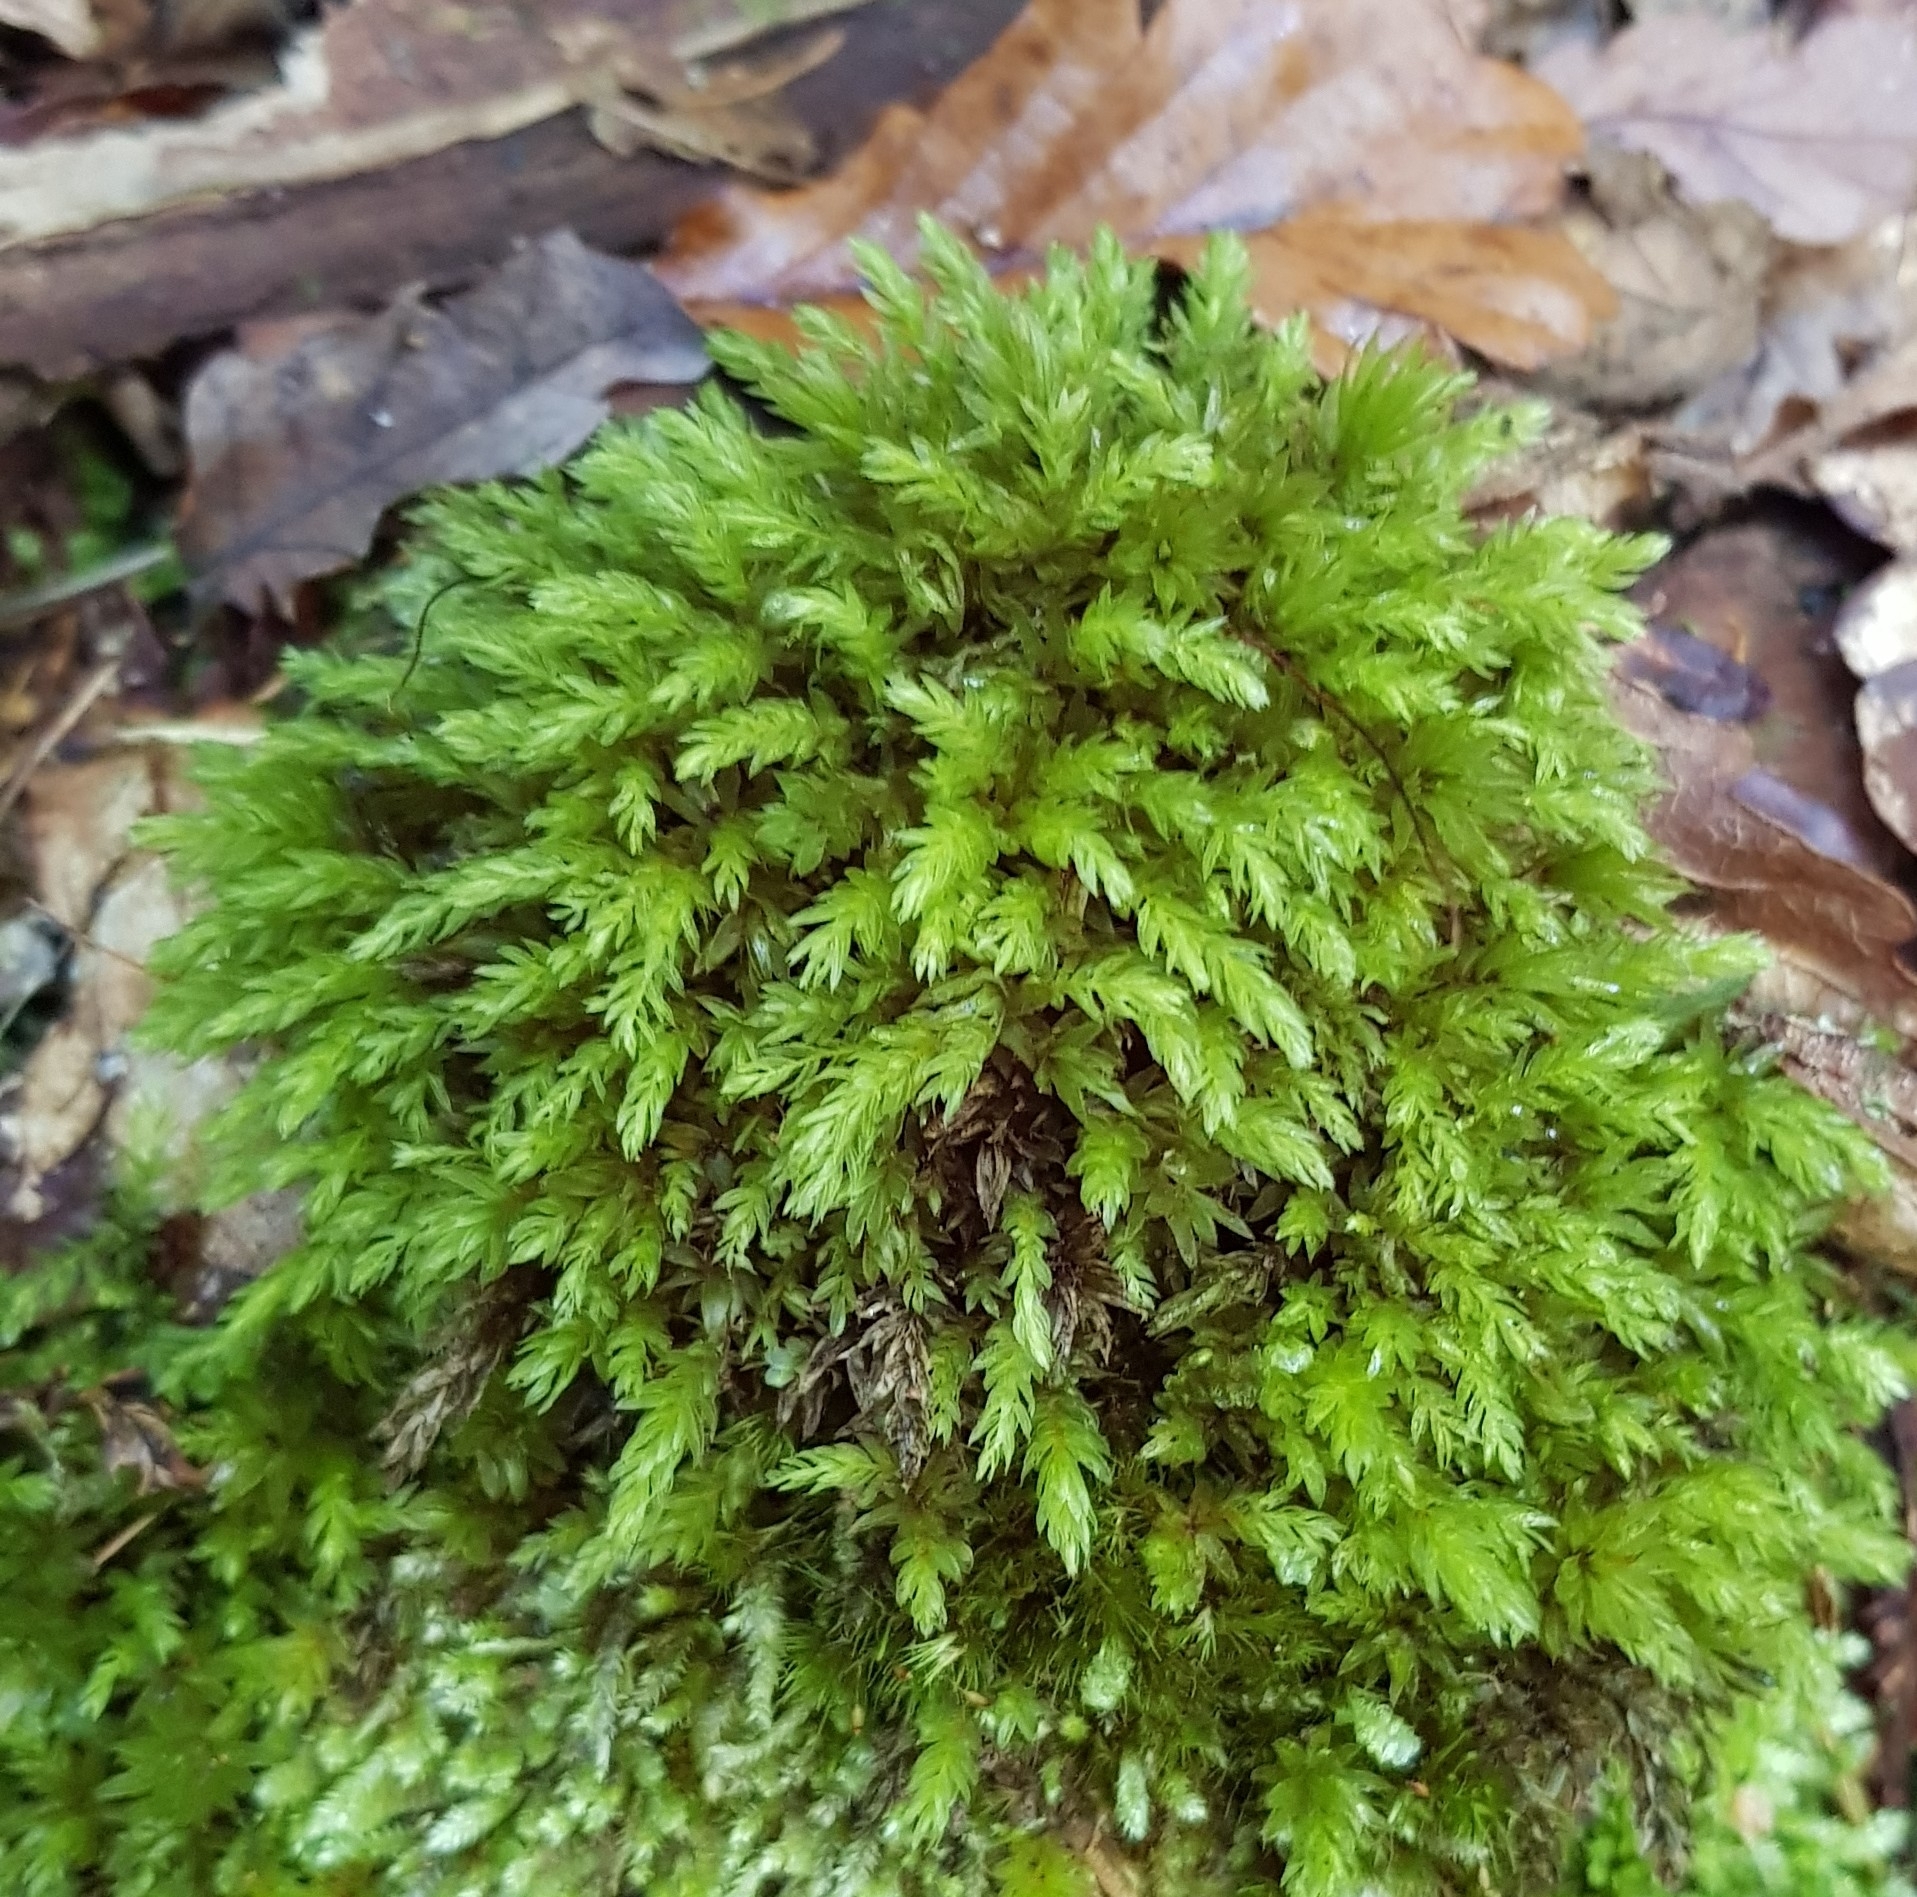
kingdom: Plantae
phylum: Bryophyta
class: Bryopsida
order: Bryales
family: Mniaceae
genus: Mnium
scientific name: Mnium hornum
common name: Swan's-neck leafy moss
